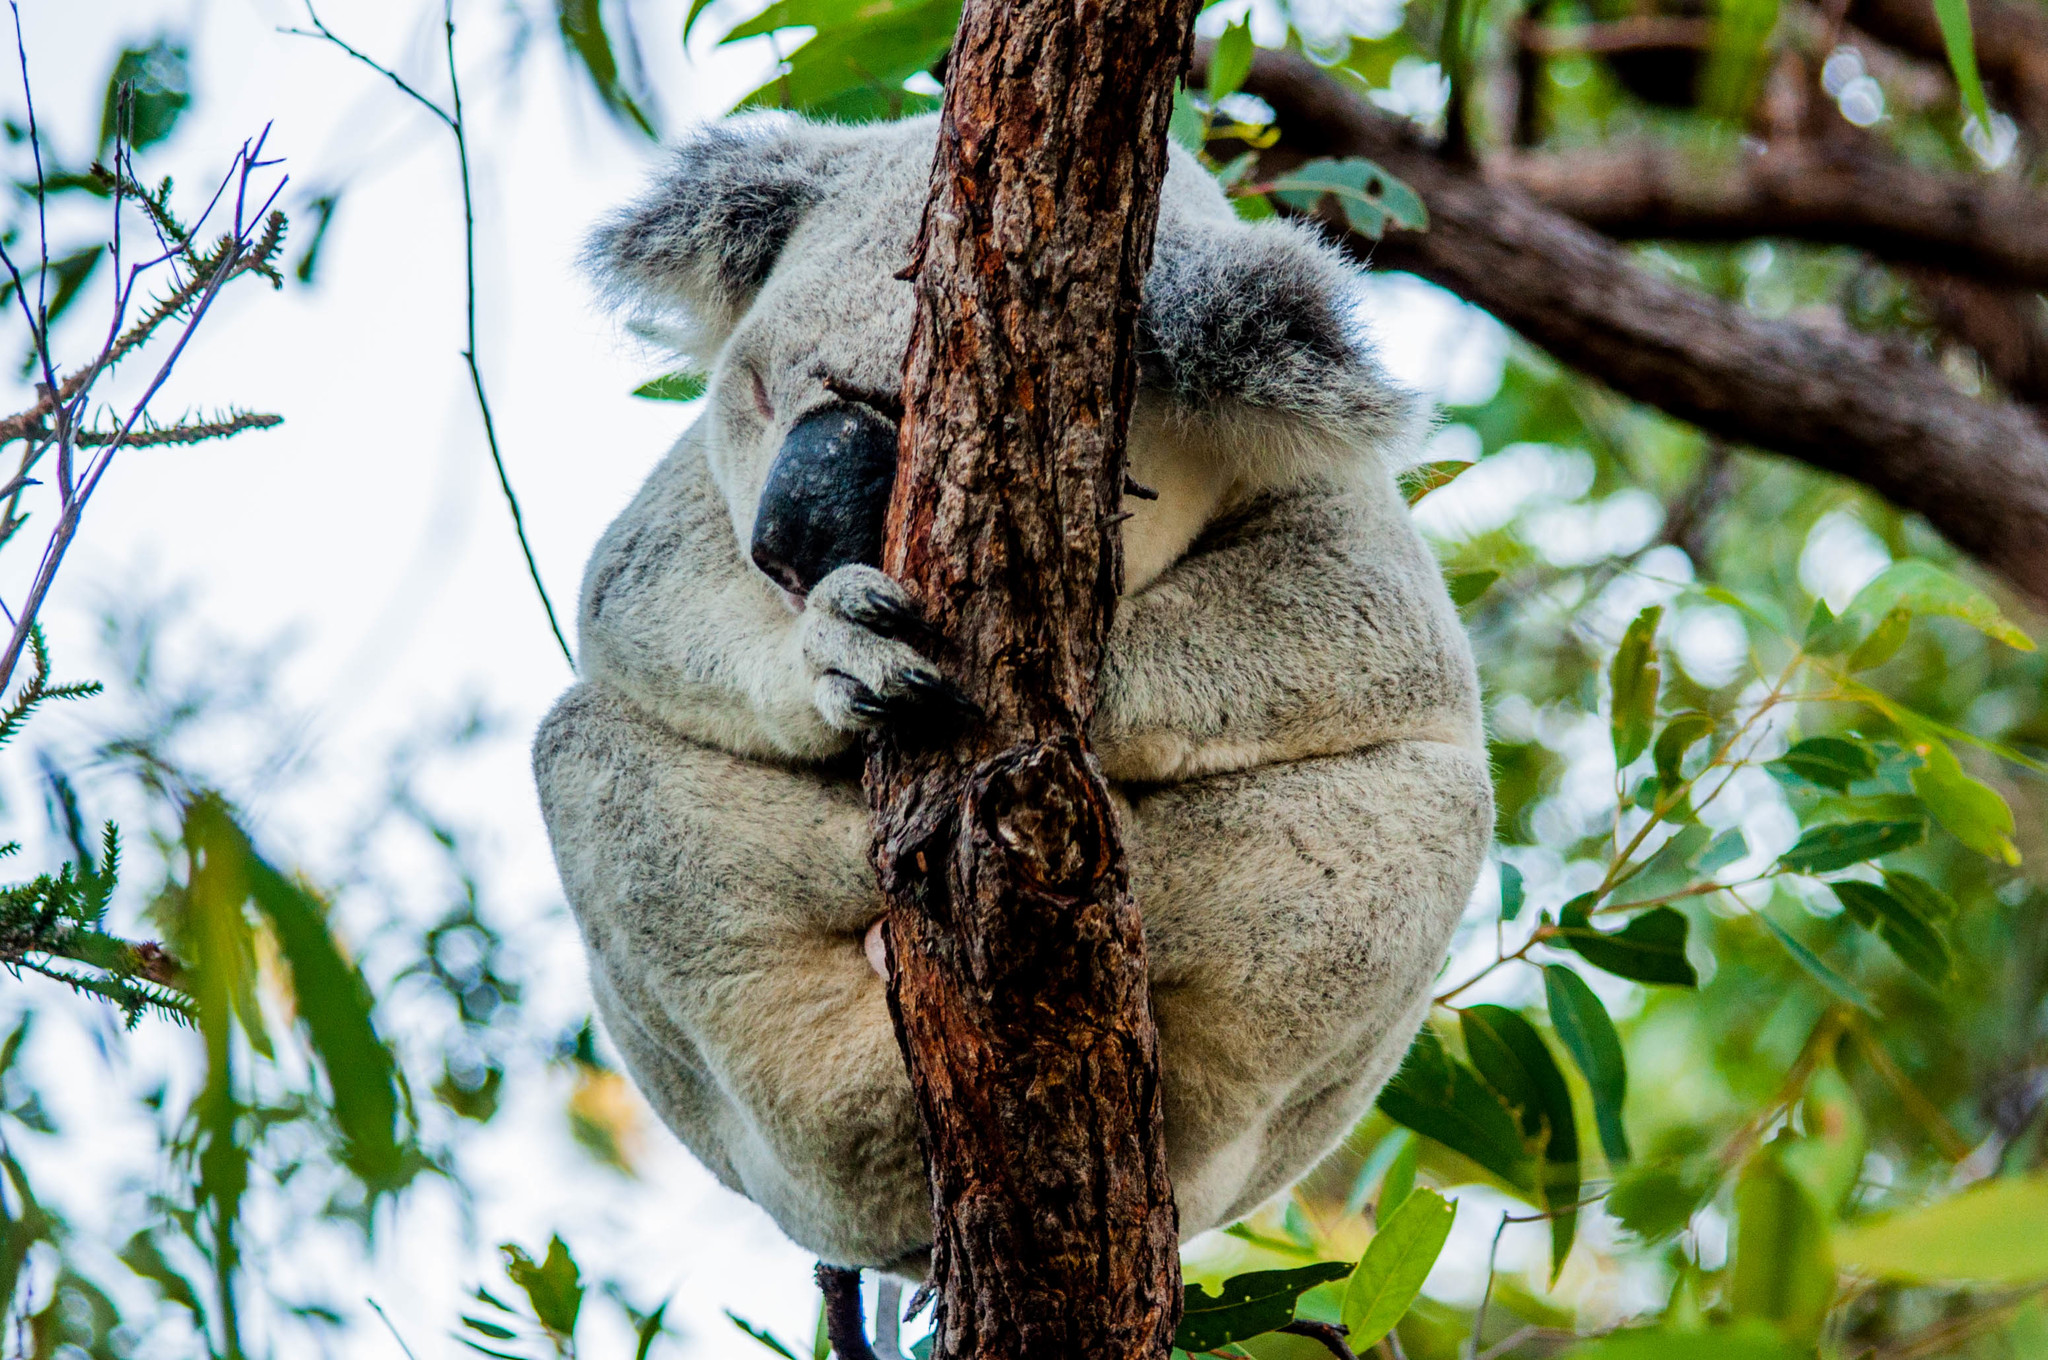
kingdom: Animalia
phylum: Chordata
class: Mammalia
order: Diprotodontia
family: Phascolarctidae
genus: Phascolarctos
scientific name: Phascolarctos cinereus
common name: Koala
